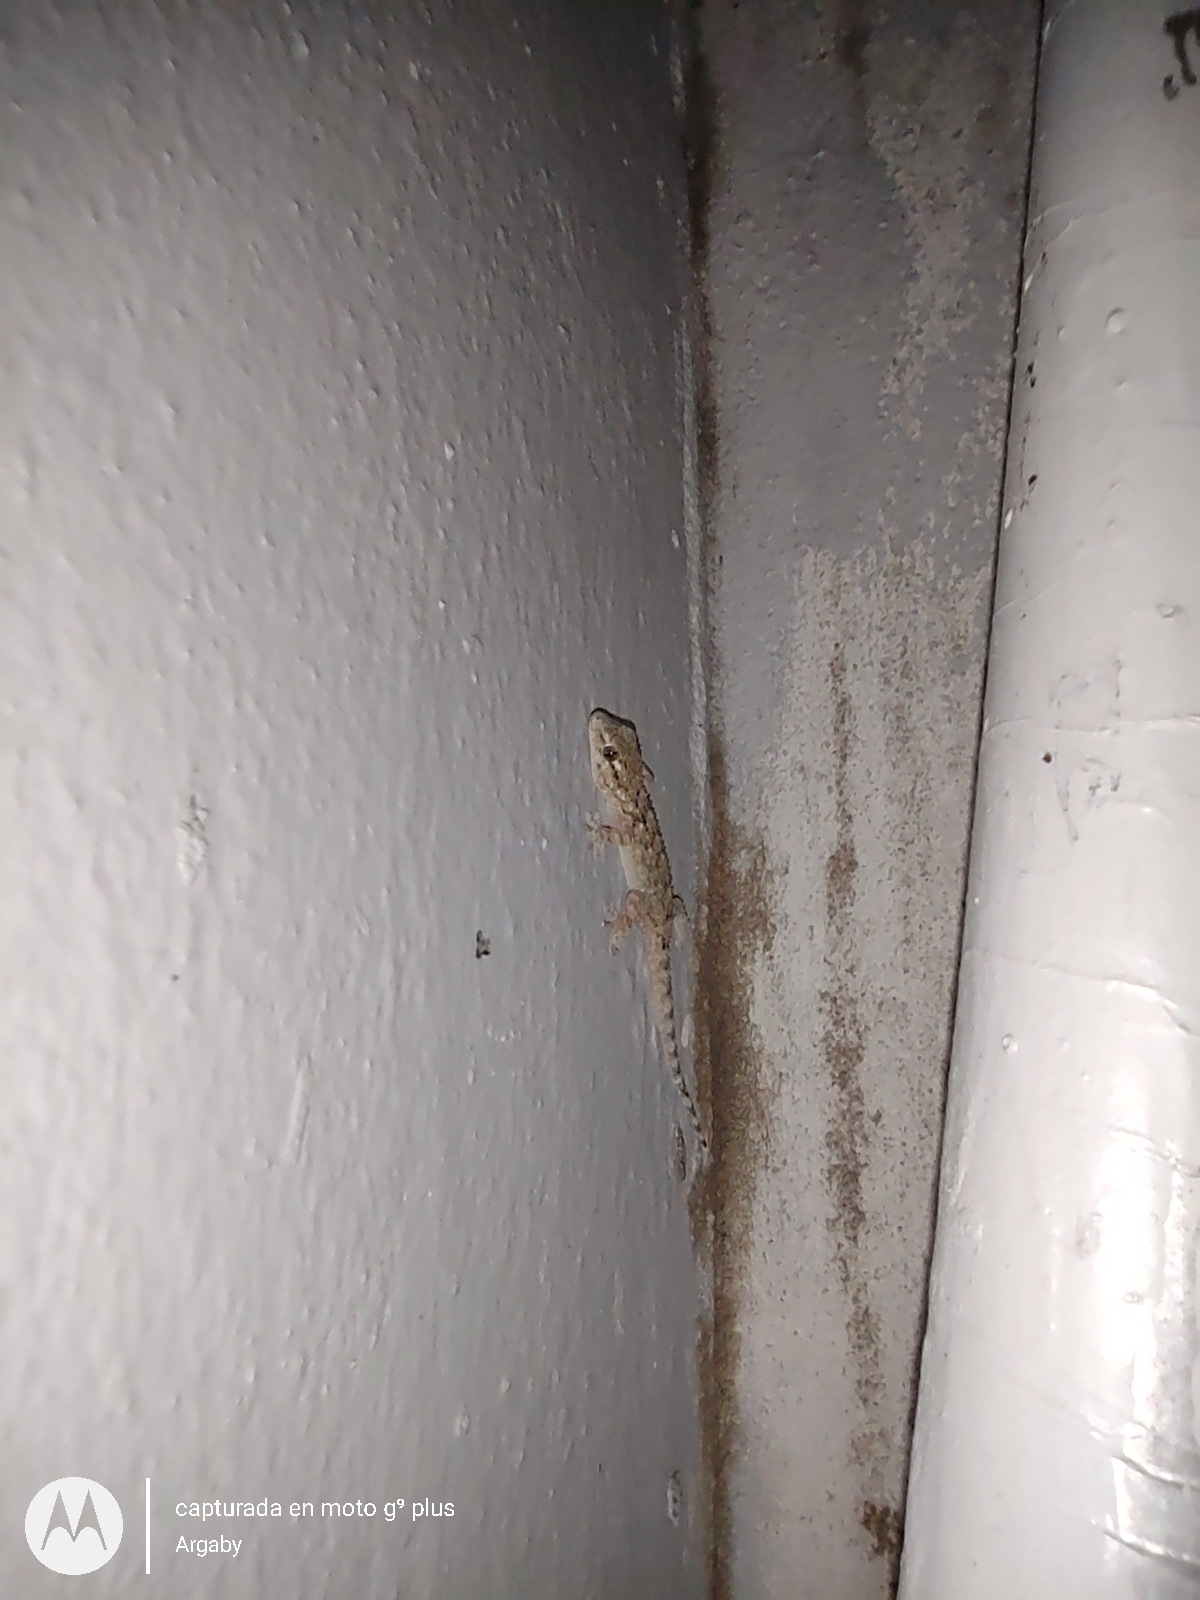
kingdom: Animalia
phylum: Chordata
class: Squamata
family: Phyllodactylidae
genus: Tarentola
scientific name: Tarentola mauritanica
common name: Moorish gecko
